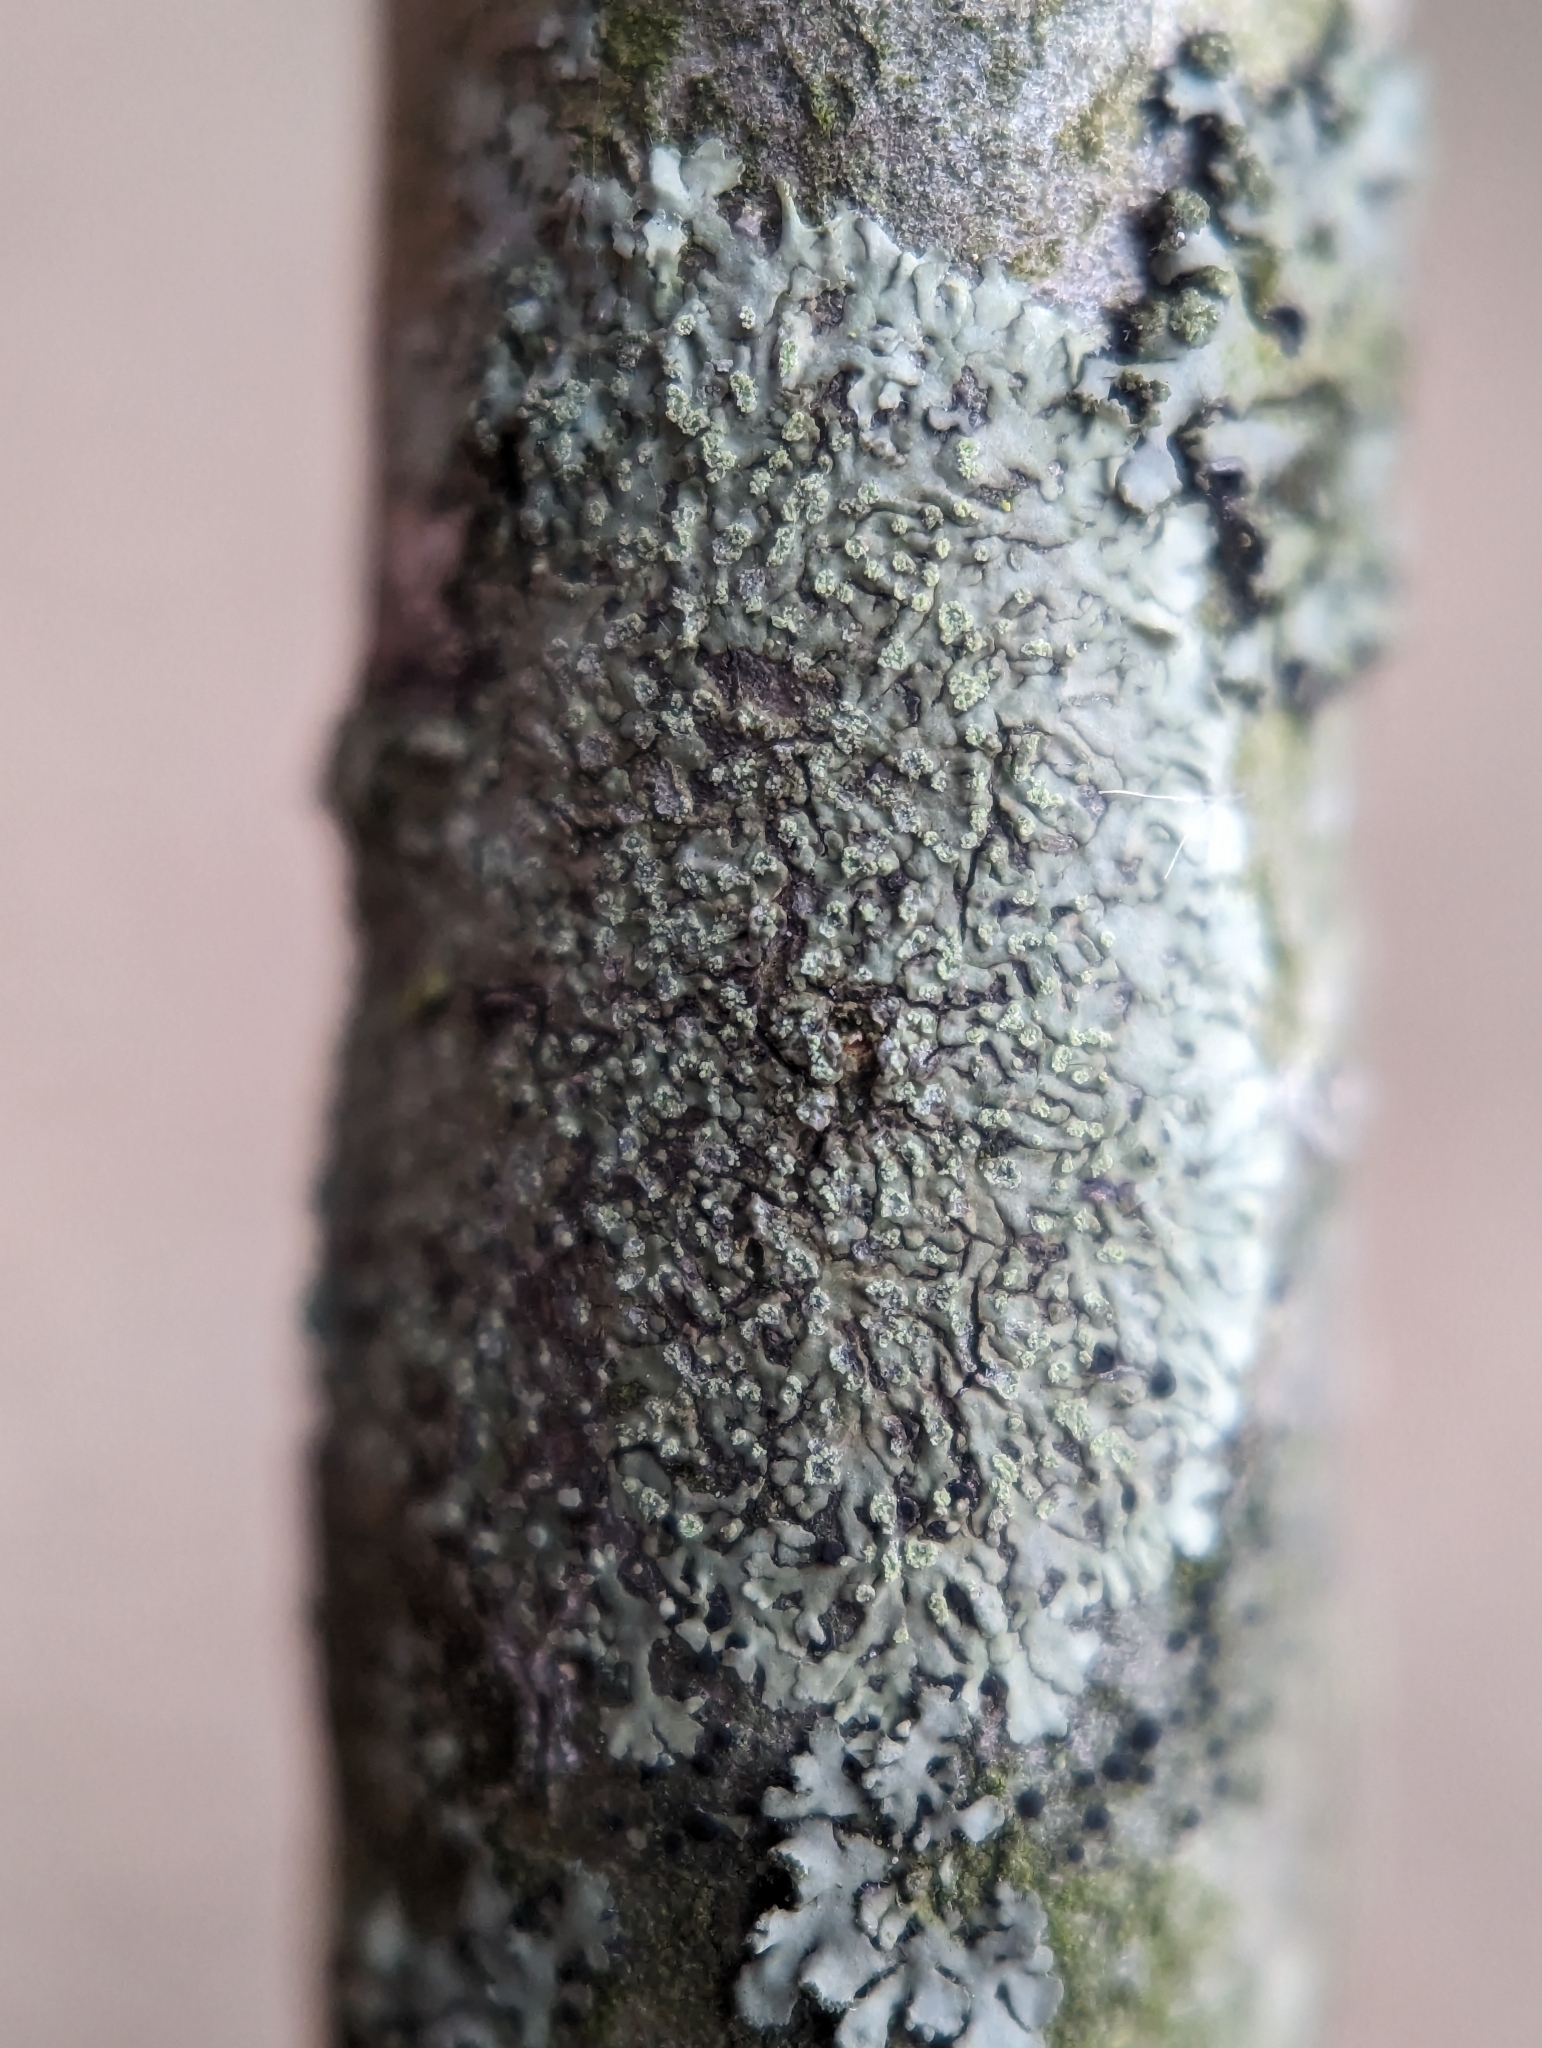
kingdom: Fungi
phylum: Ascomycota
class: Lecanoromycetes
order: Caliciales
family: Physciaceae
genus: Hyperphyscia
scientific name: Hyperphyscia adglutinata
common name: Grainy shadow-crust lichen
